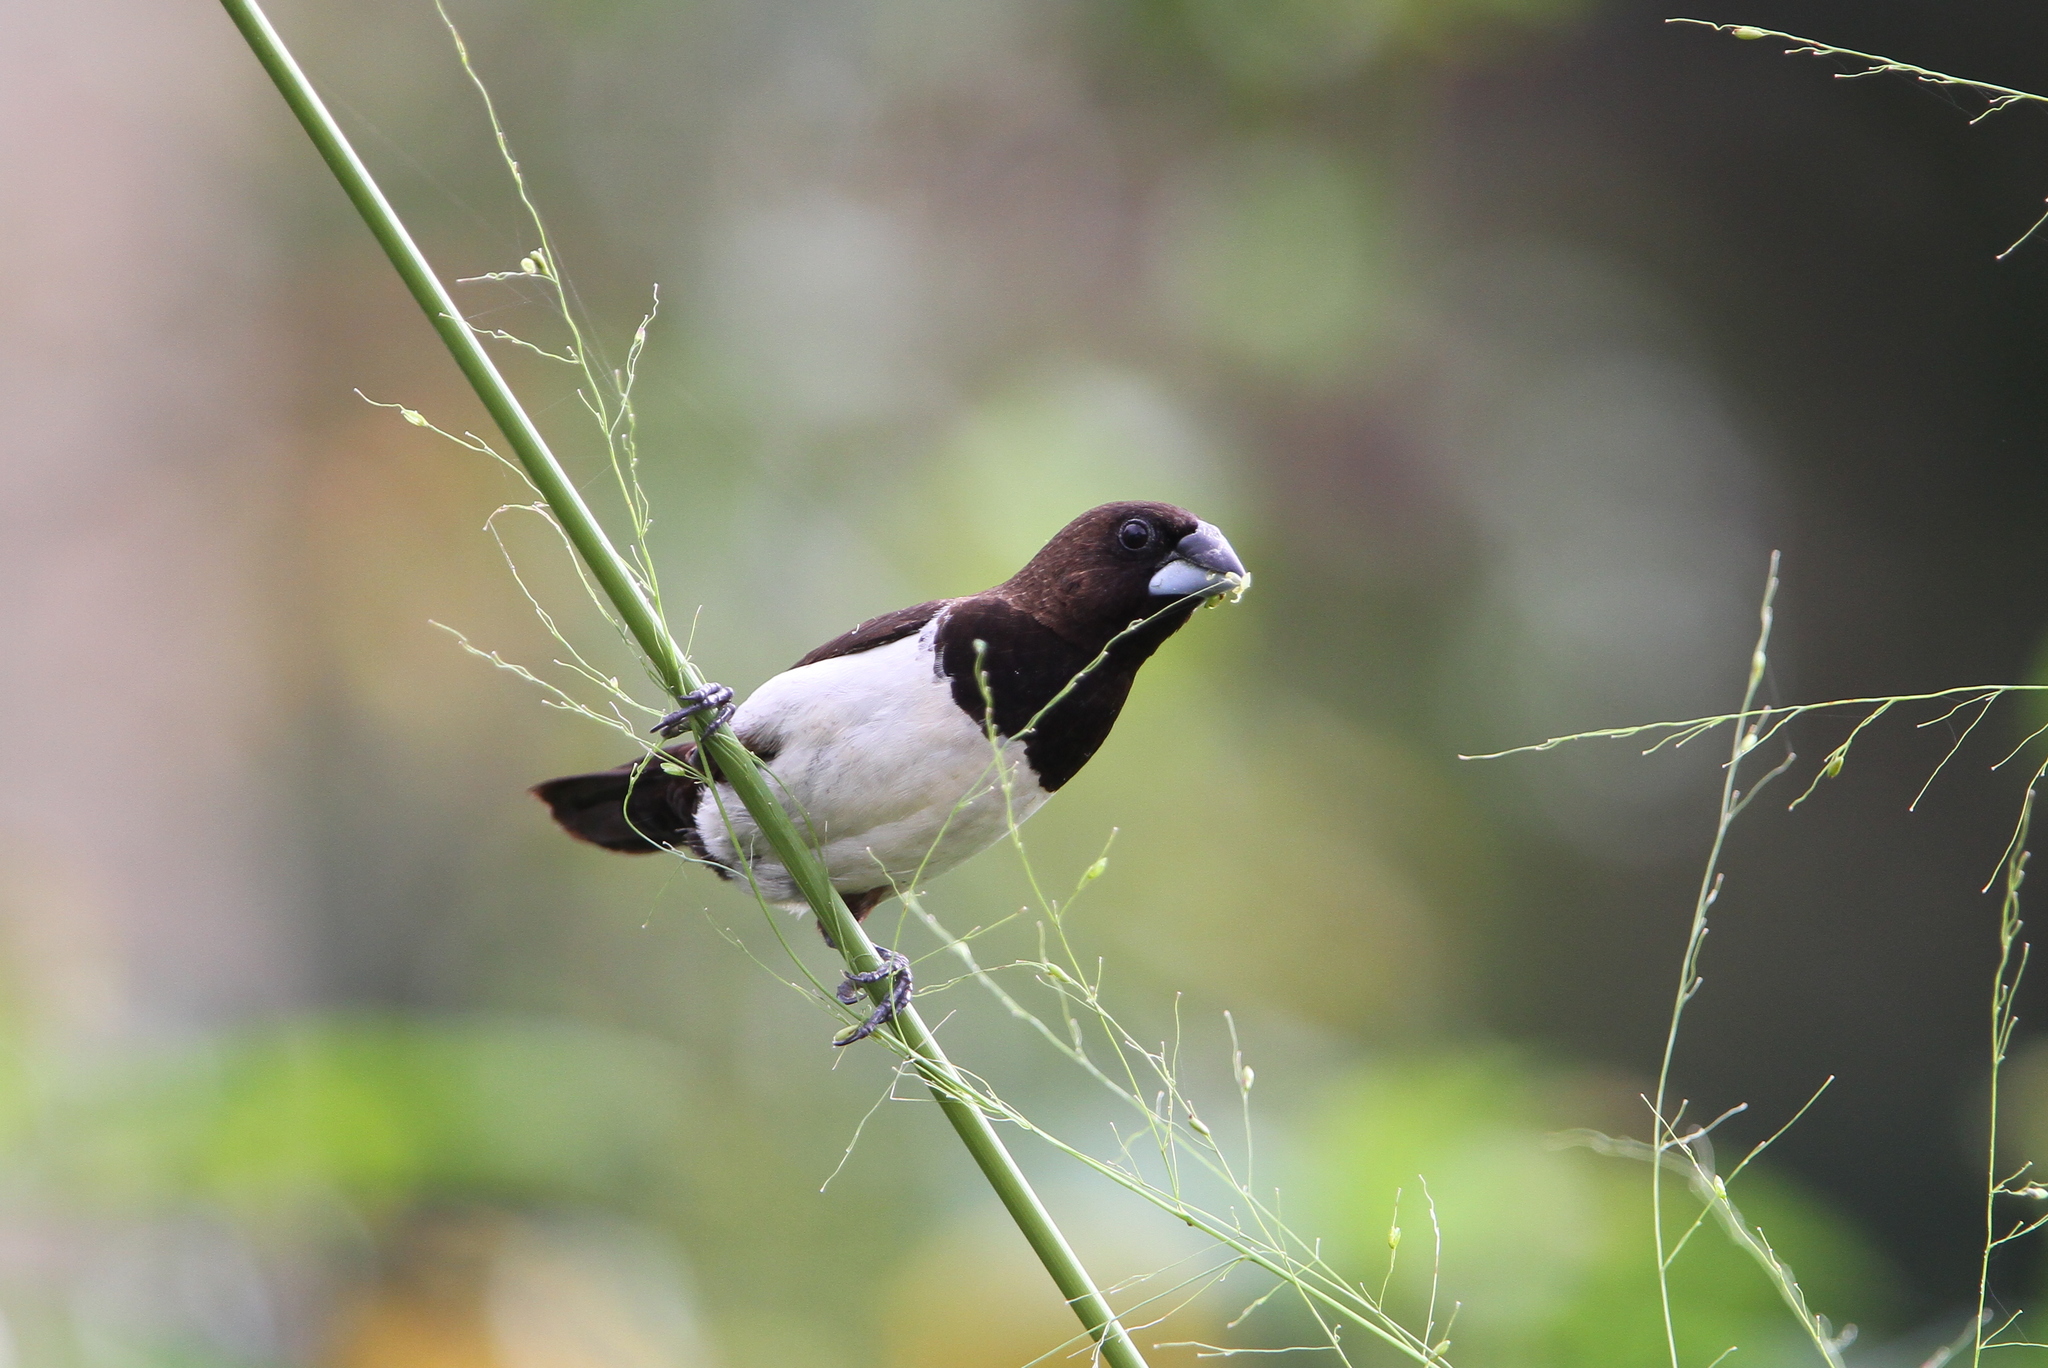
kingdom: Animalia
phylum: Chordata
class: Aves
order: Passeriformes
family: Estrildidae
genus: Lonchura
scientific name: Lonchura striata
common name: White-rumped munia
